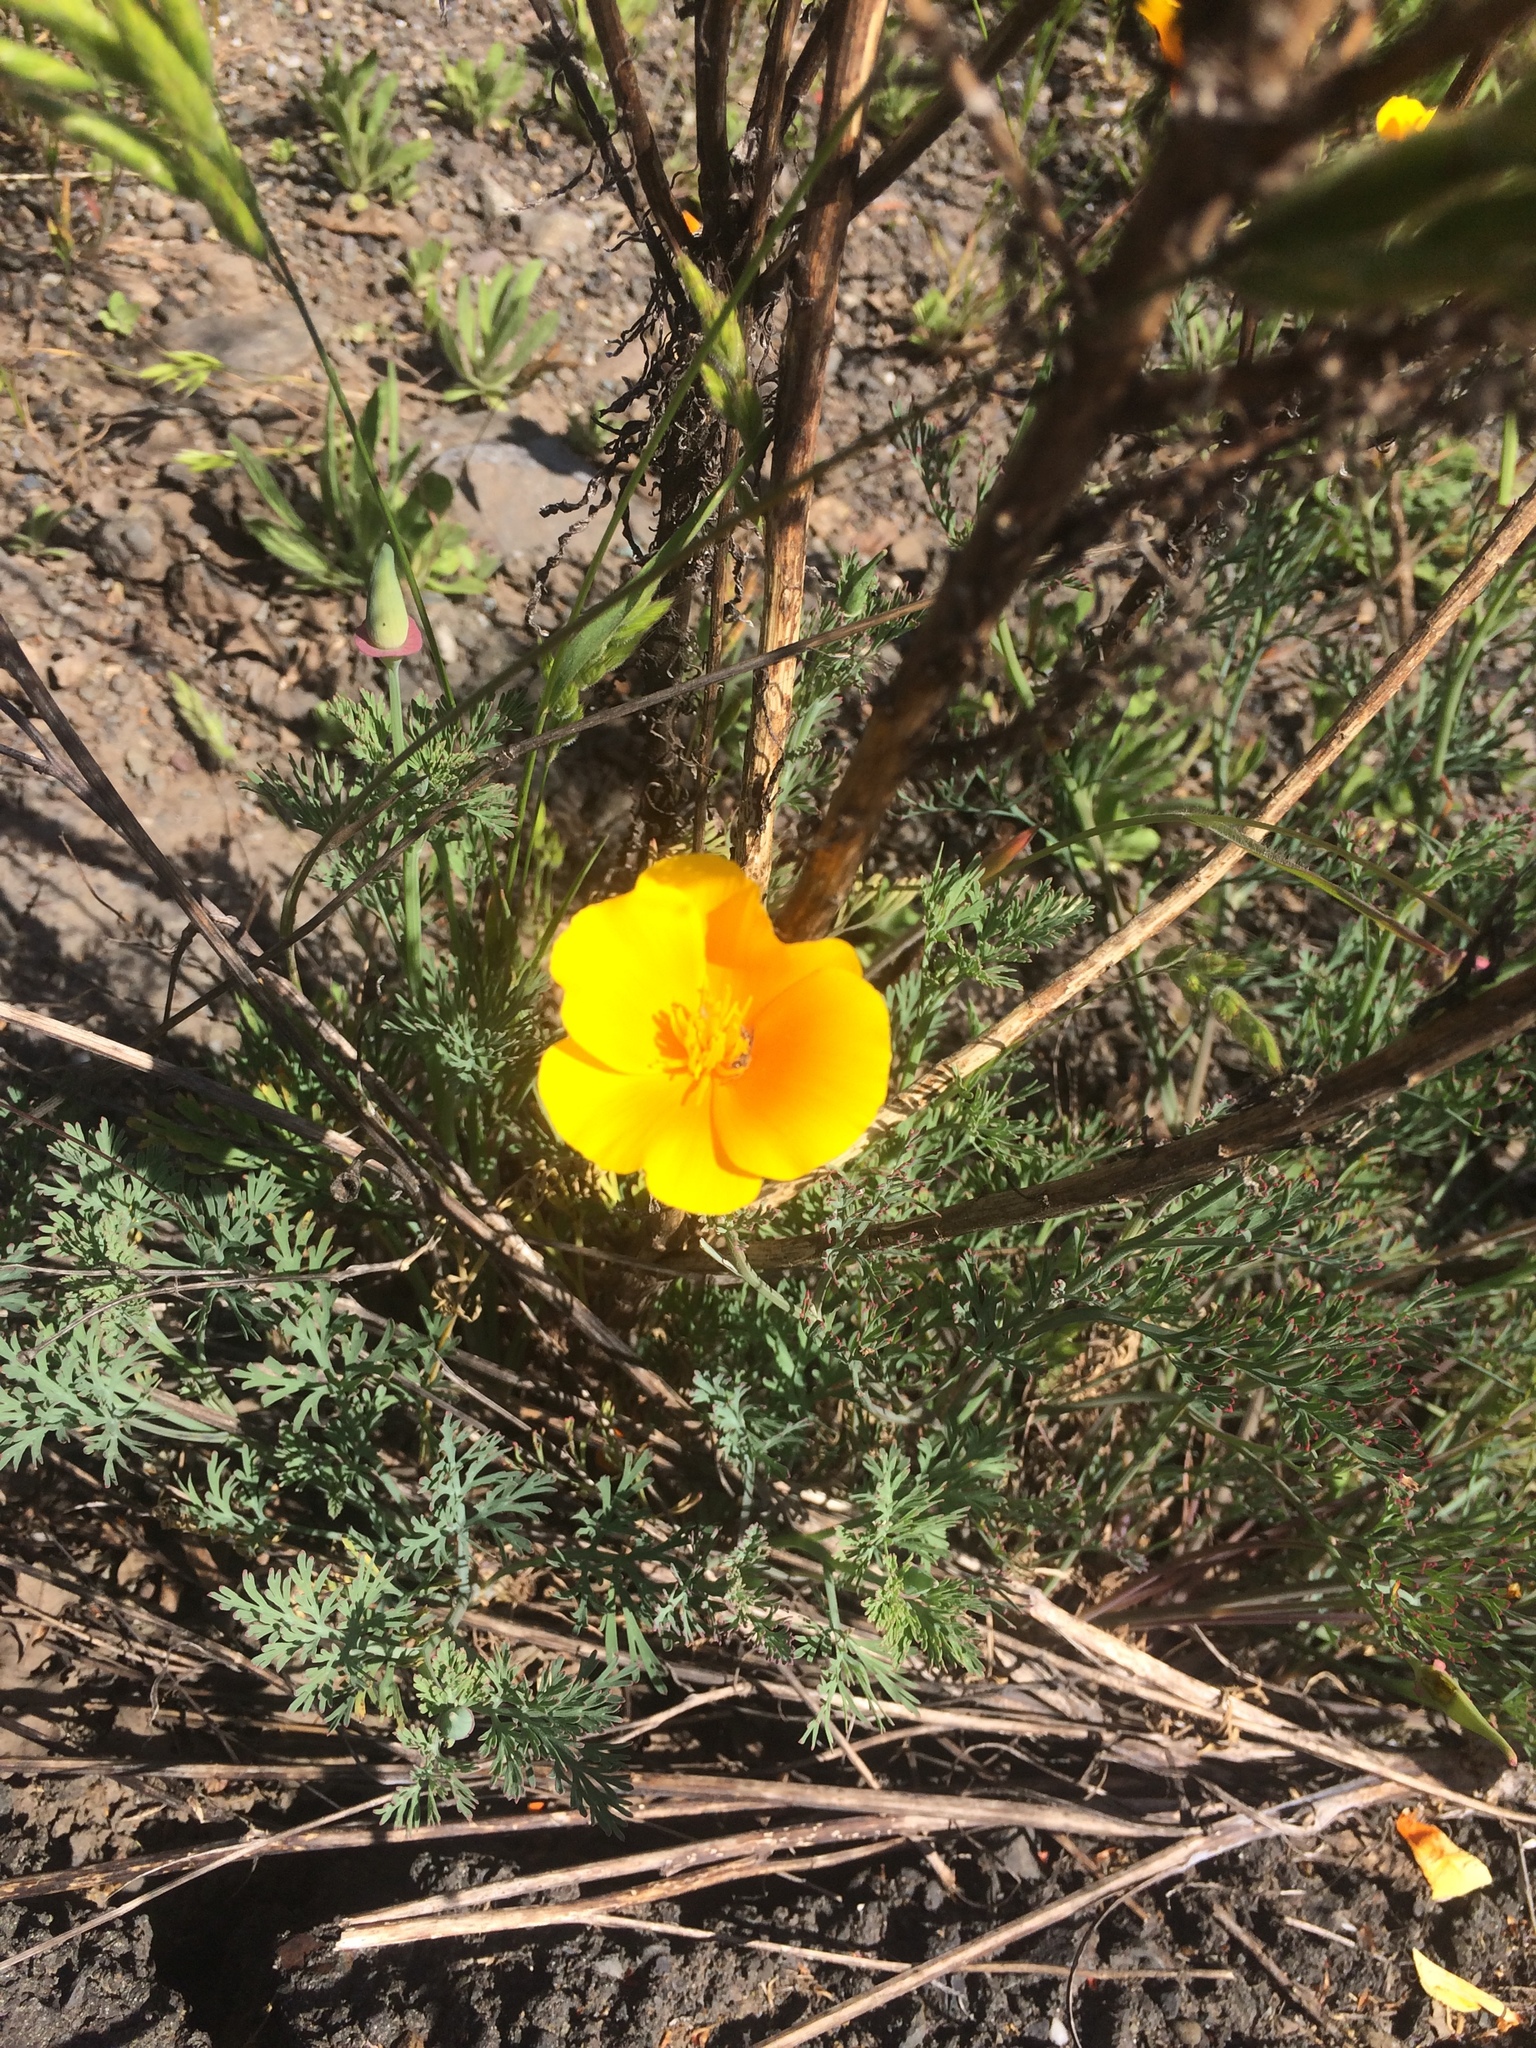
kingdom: Plantae
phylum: Tracheophyta
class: Magnoliopsida
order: Ranunculales
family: Papaveraceae
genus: Eschscholzia
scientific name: Eschscholzia californica
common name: California poppy
